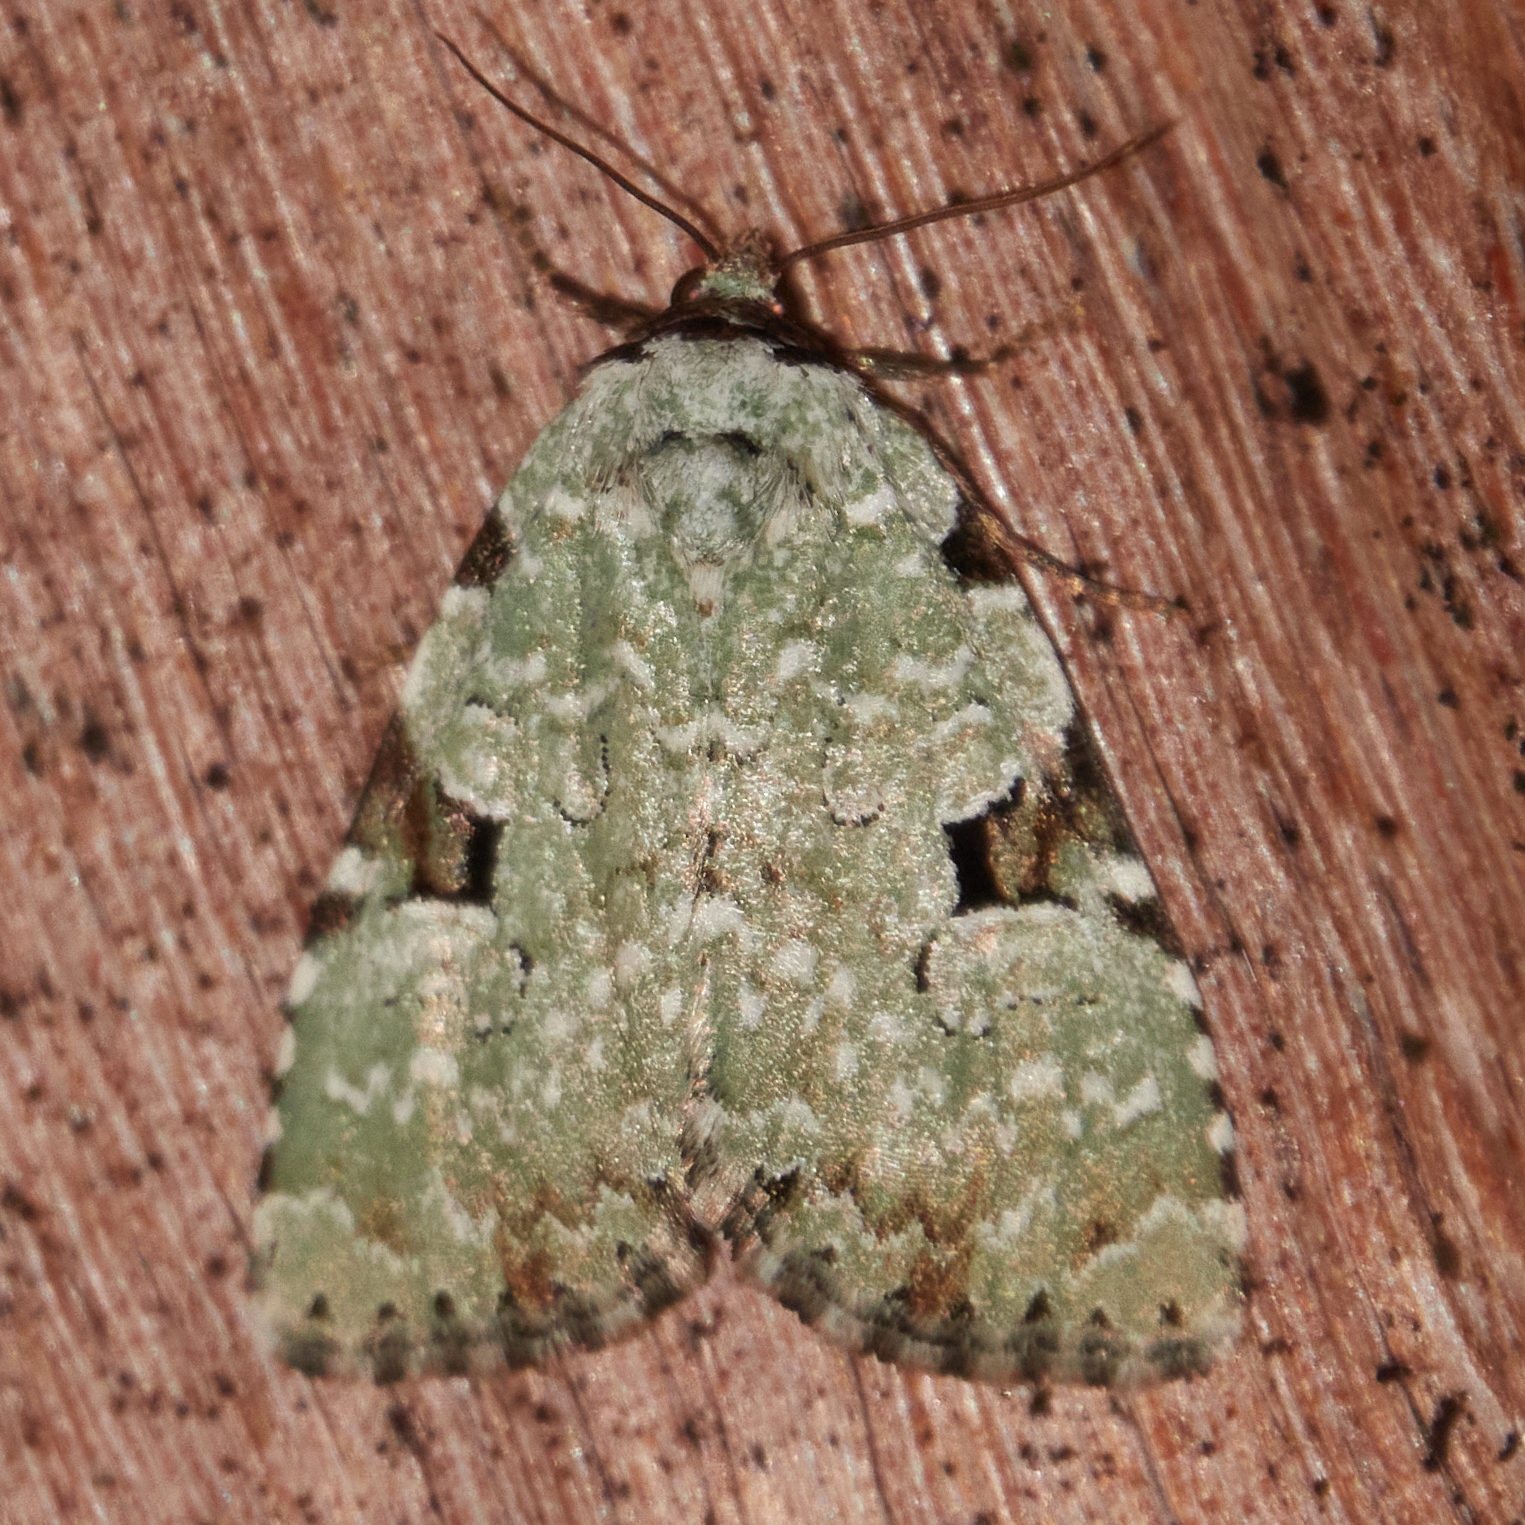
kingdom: Animalia
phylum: Arthropoda
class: Insecta
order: Lepidoptera
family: Noctuidae
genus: Leuconycta
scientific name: Leuconycta diphteroides
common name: Green leuconycta moth
